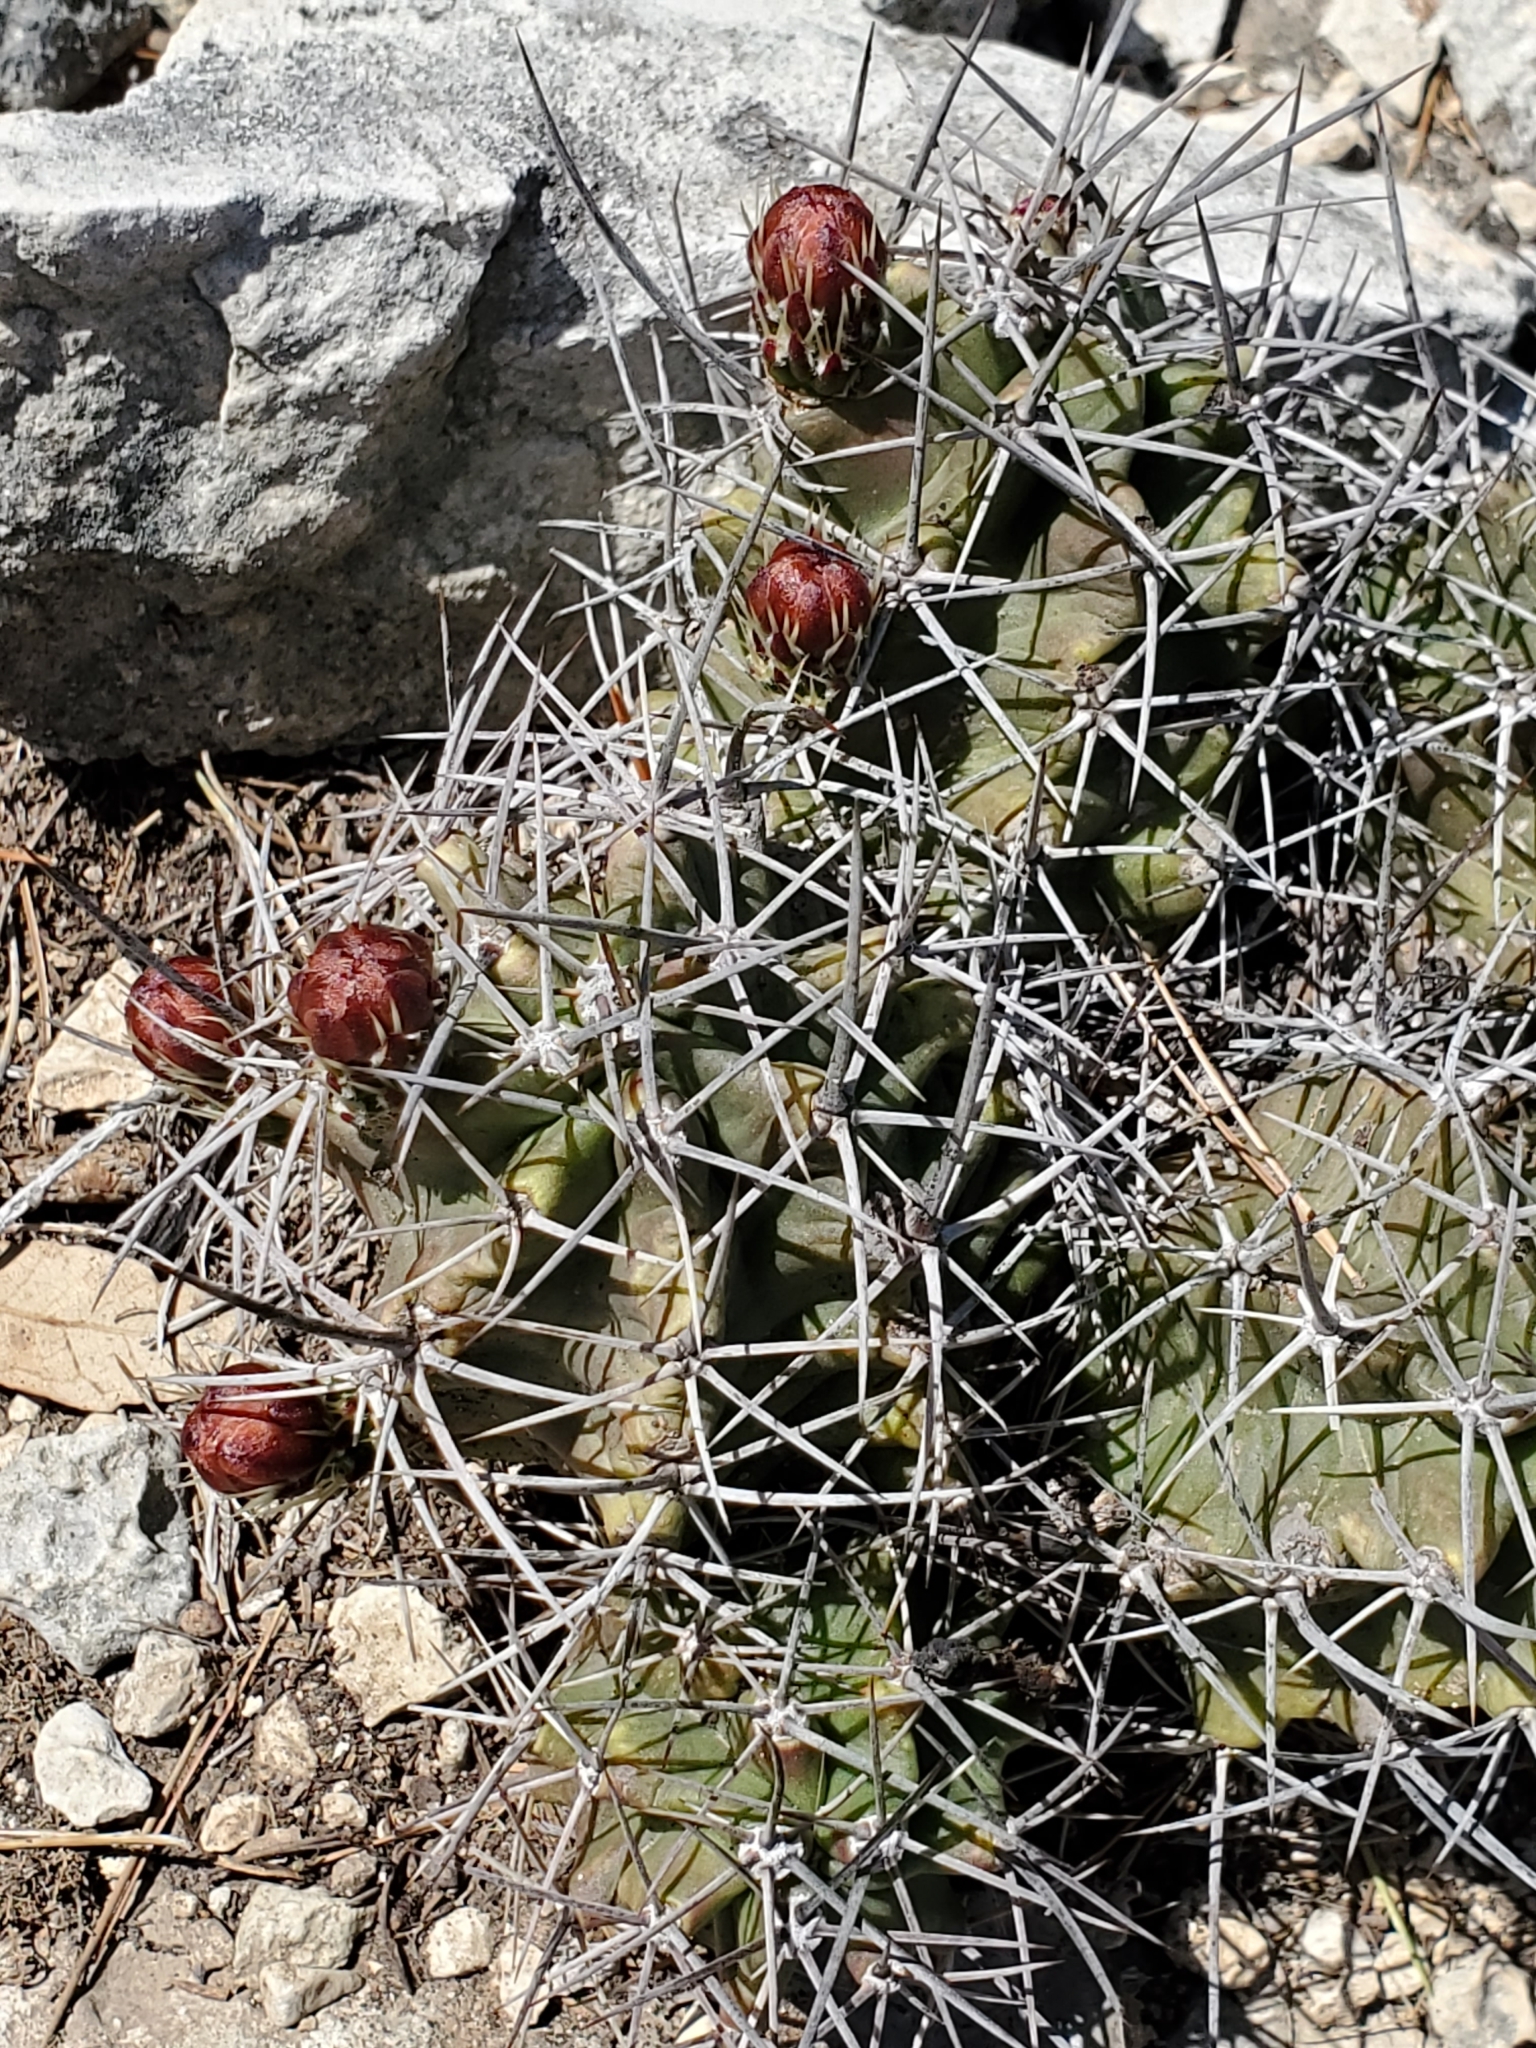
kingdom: Plantae
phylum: Tracheophyta
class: Magnoliopsida
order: Caryophyllales
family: Cactaceae
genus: Echinocereus
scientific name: Echinocereus coccineus
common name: Scarlet hedgehog cactus
